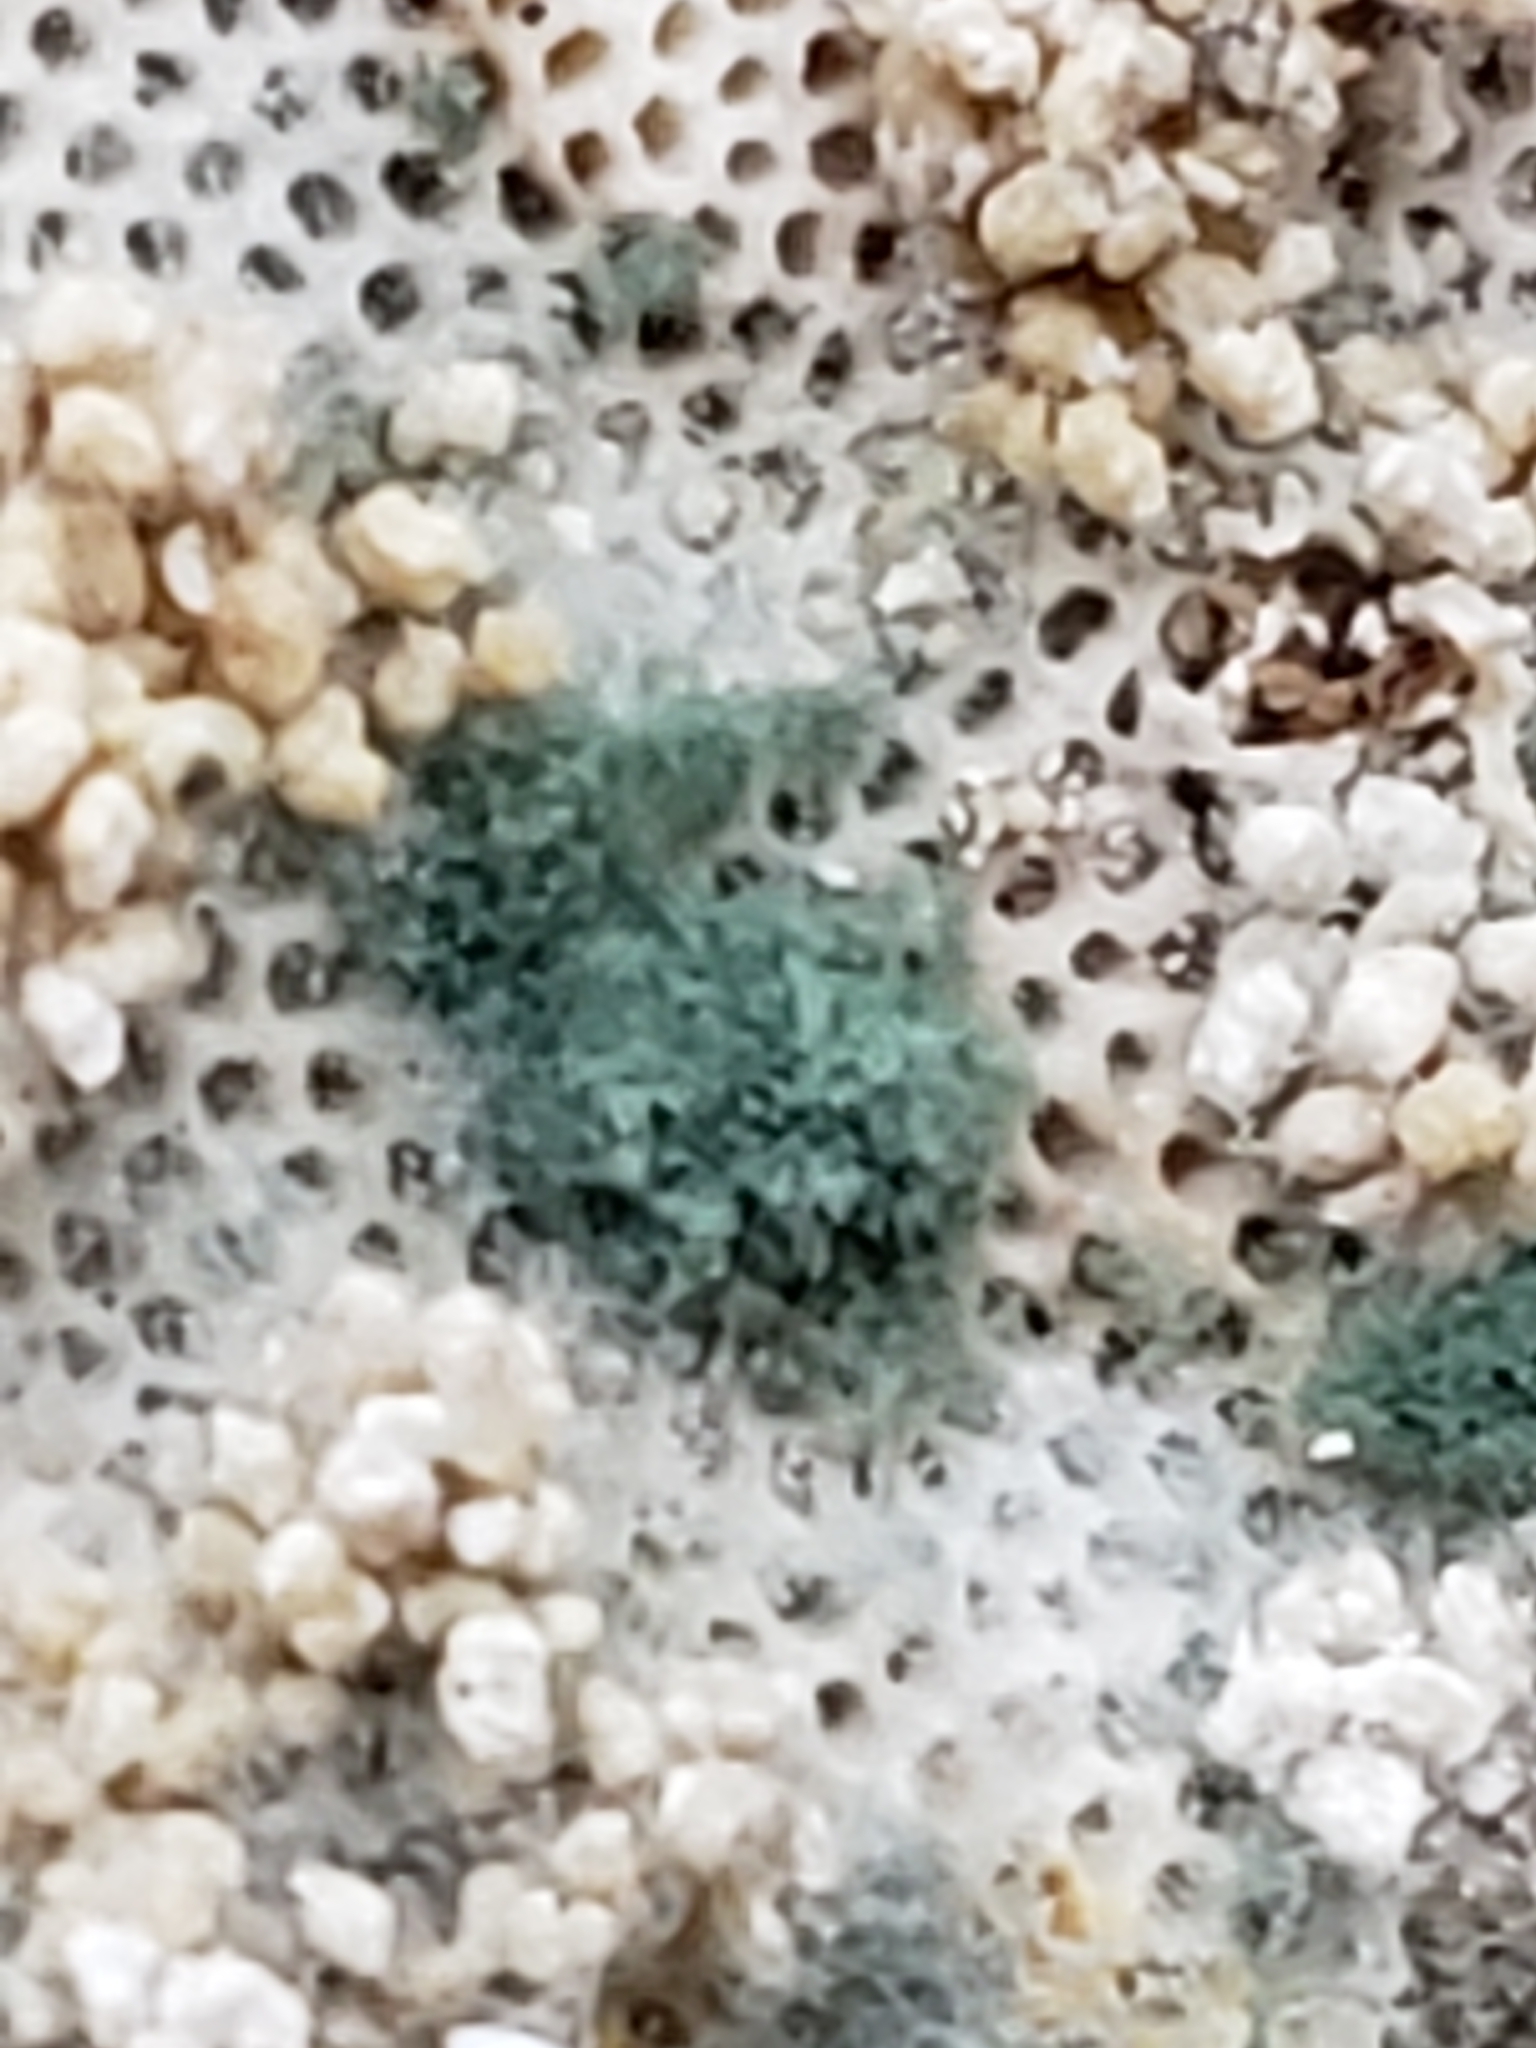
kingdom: Fungi
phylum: Ascomycota
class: Sordariomycetes
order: Hypocreales
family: Hypocreaceae
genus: Trichoderma
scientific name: Trichoderma viride
